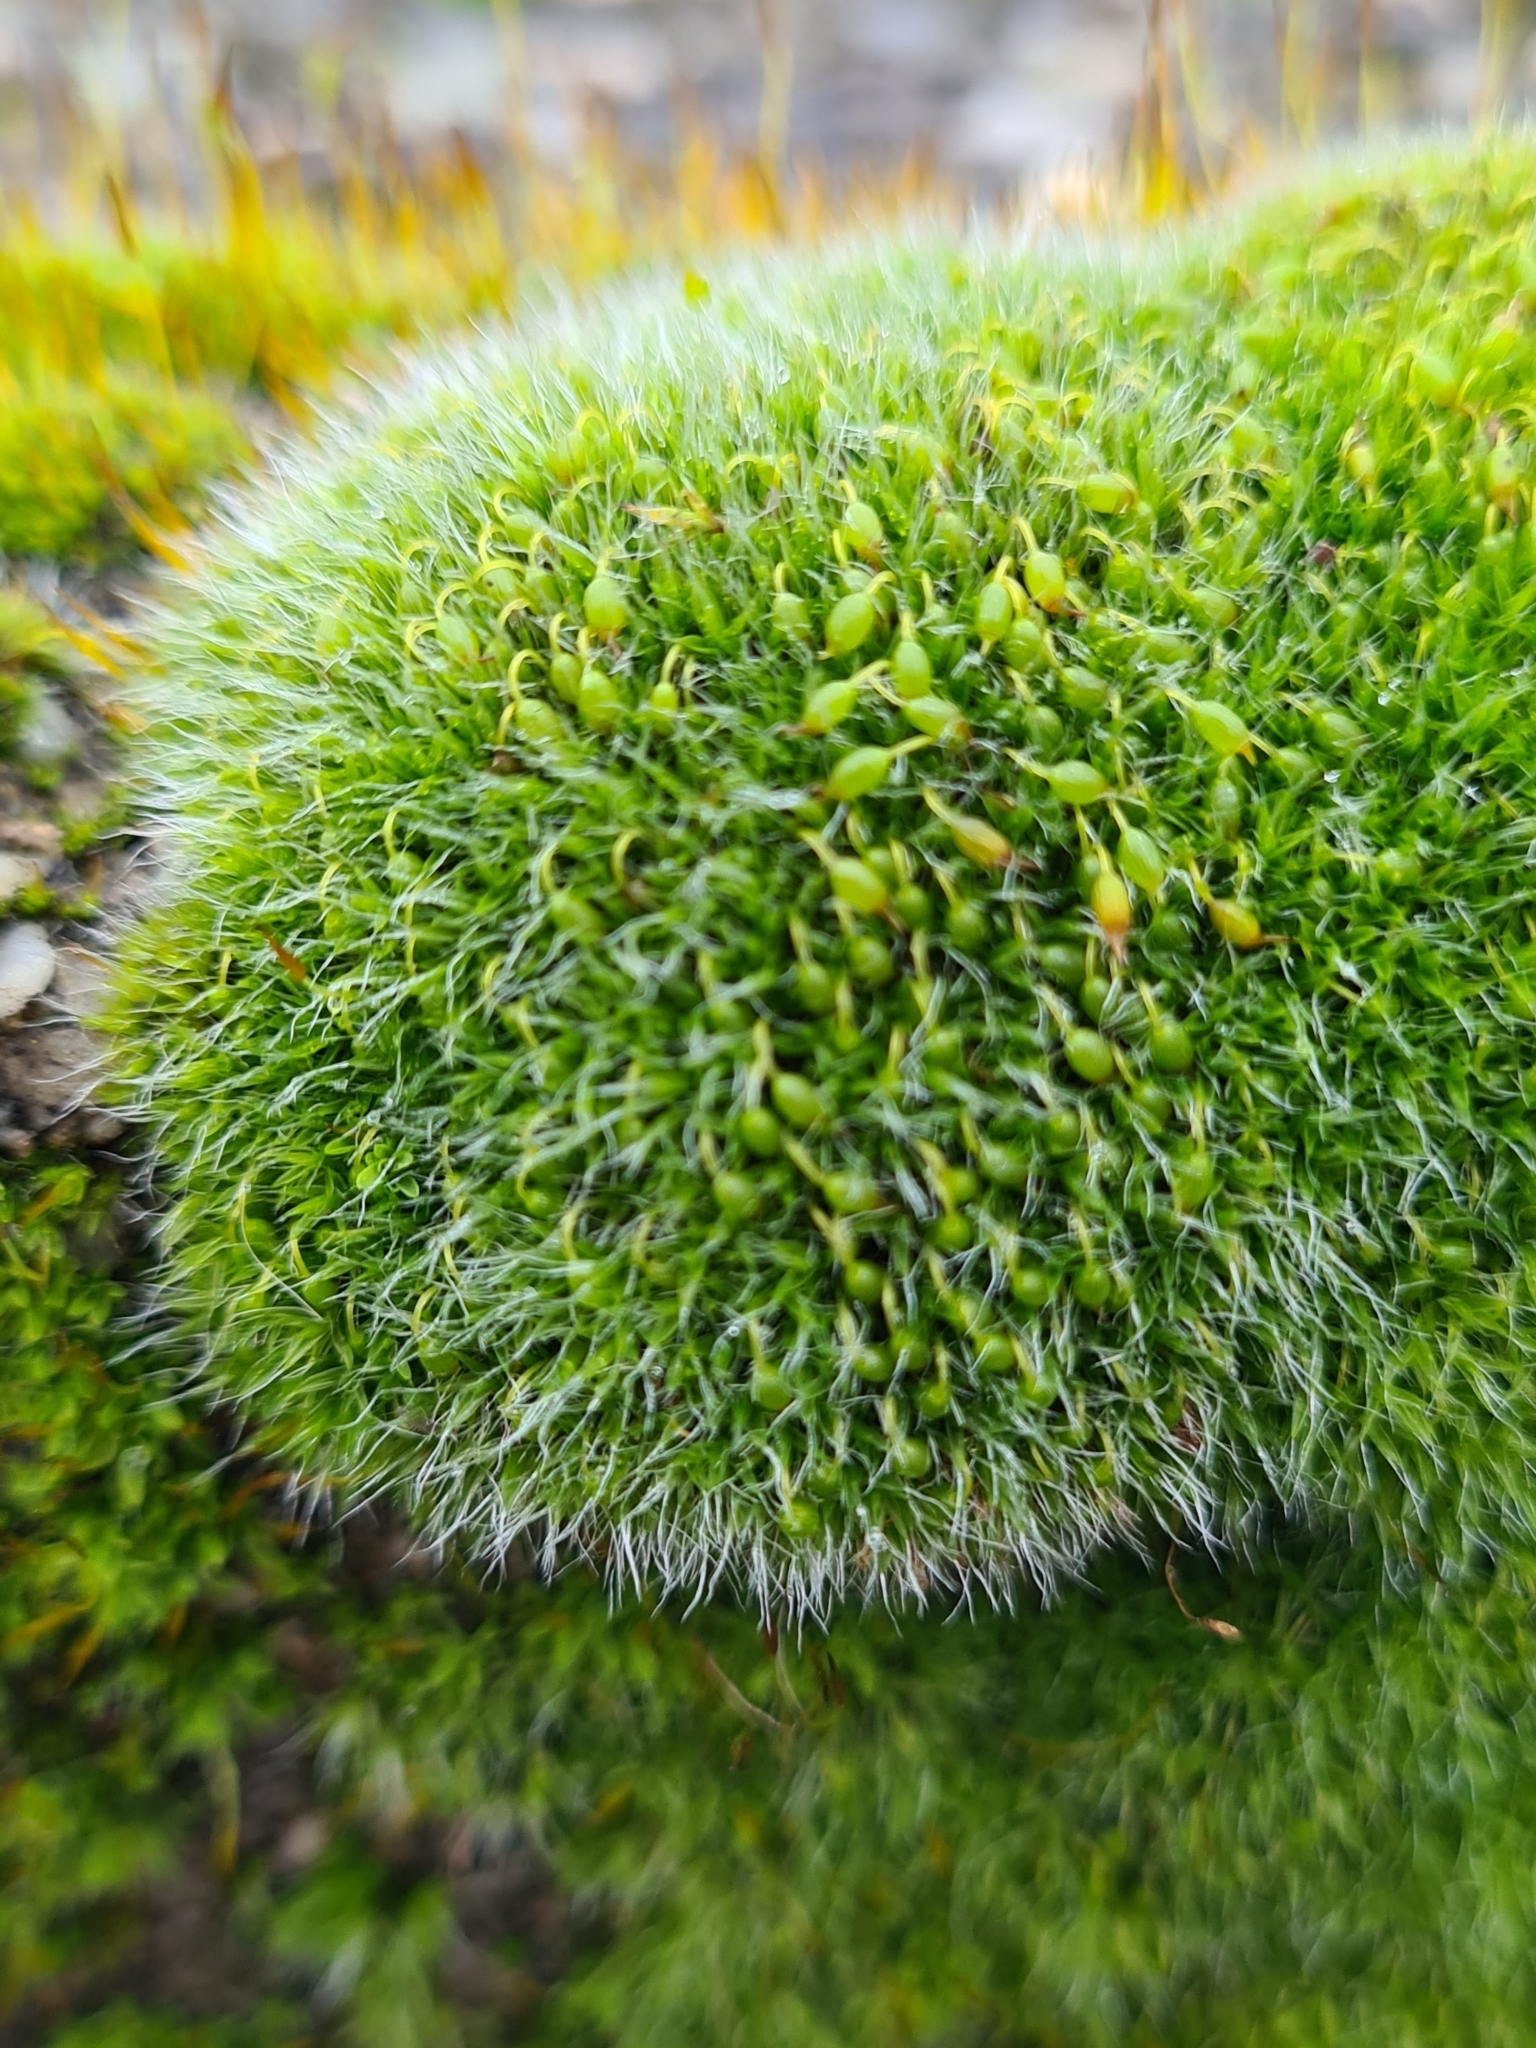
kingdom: Plantae
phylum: Bryophyta
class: Bryopsida
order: Grimmiales
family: Grimmiaceae
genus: Grimmia
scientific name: Grimmia pulvinata
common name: Grey-cushioned grimmia
